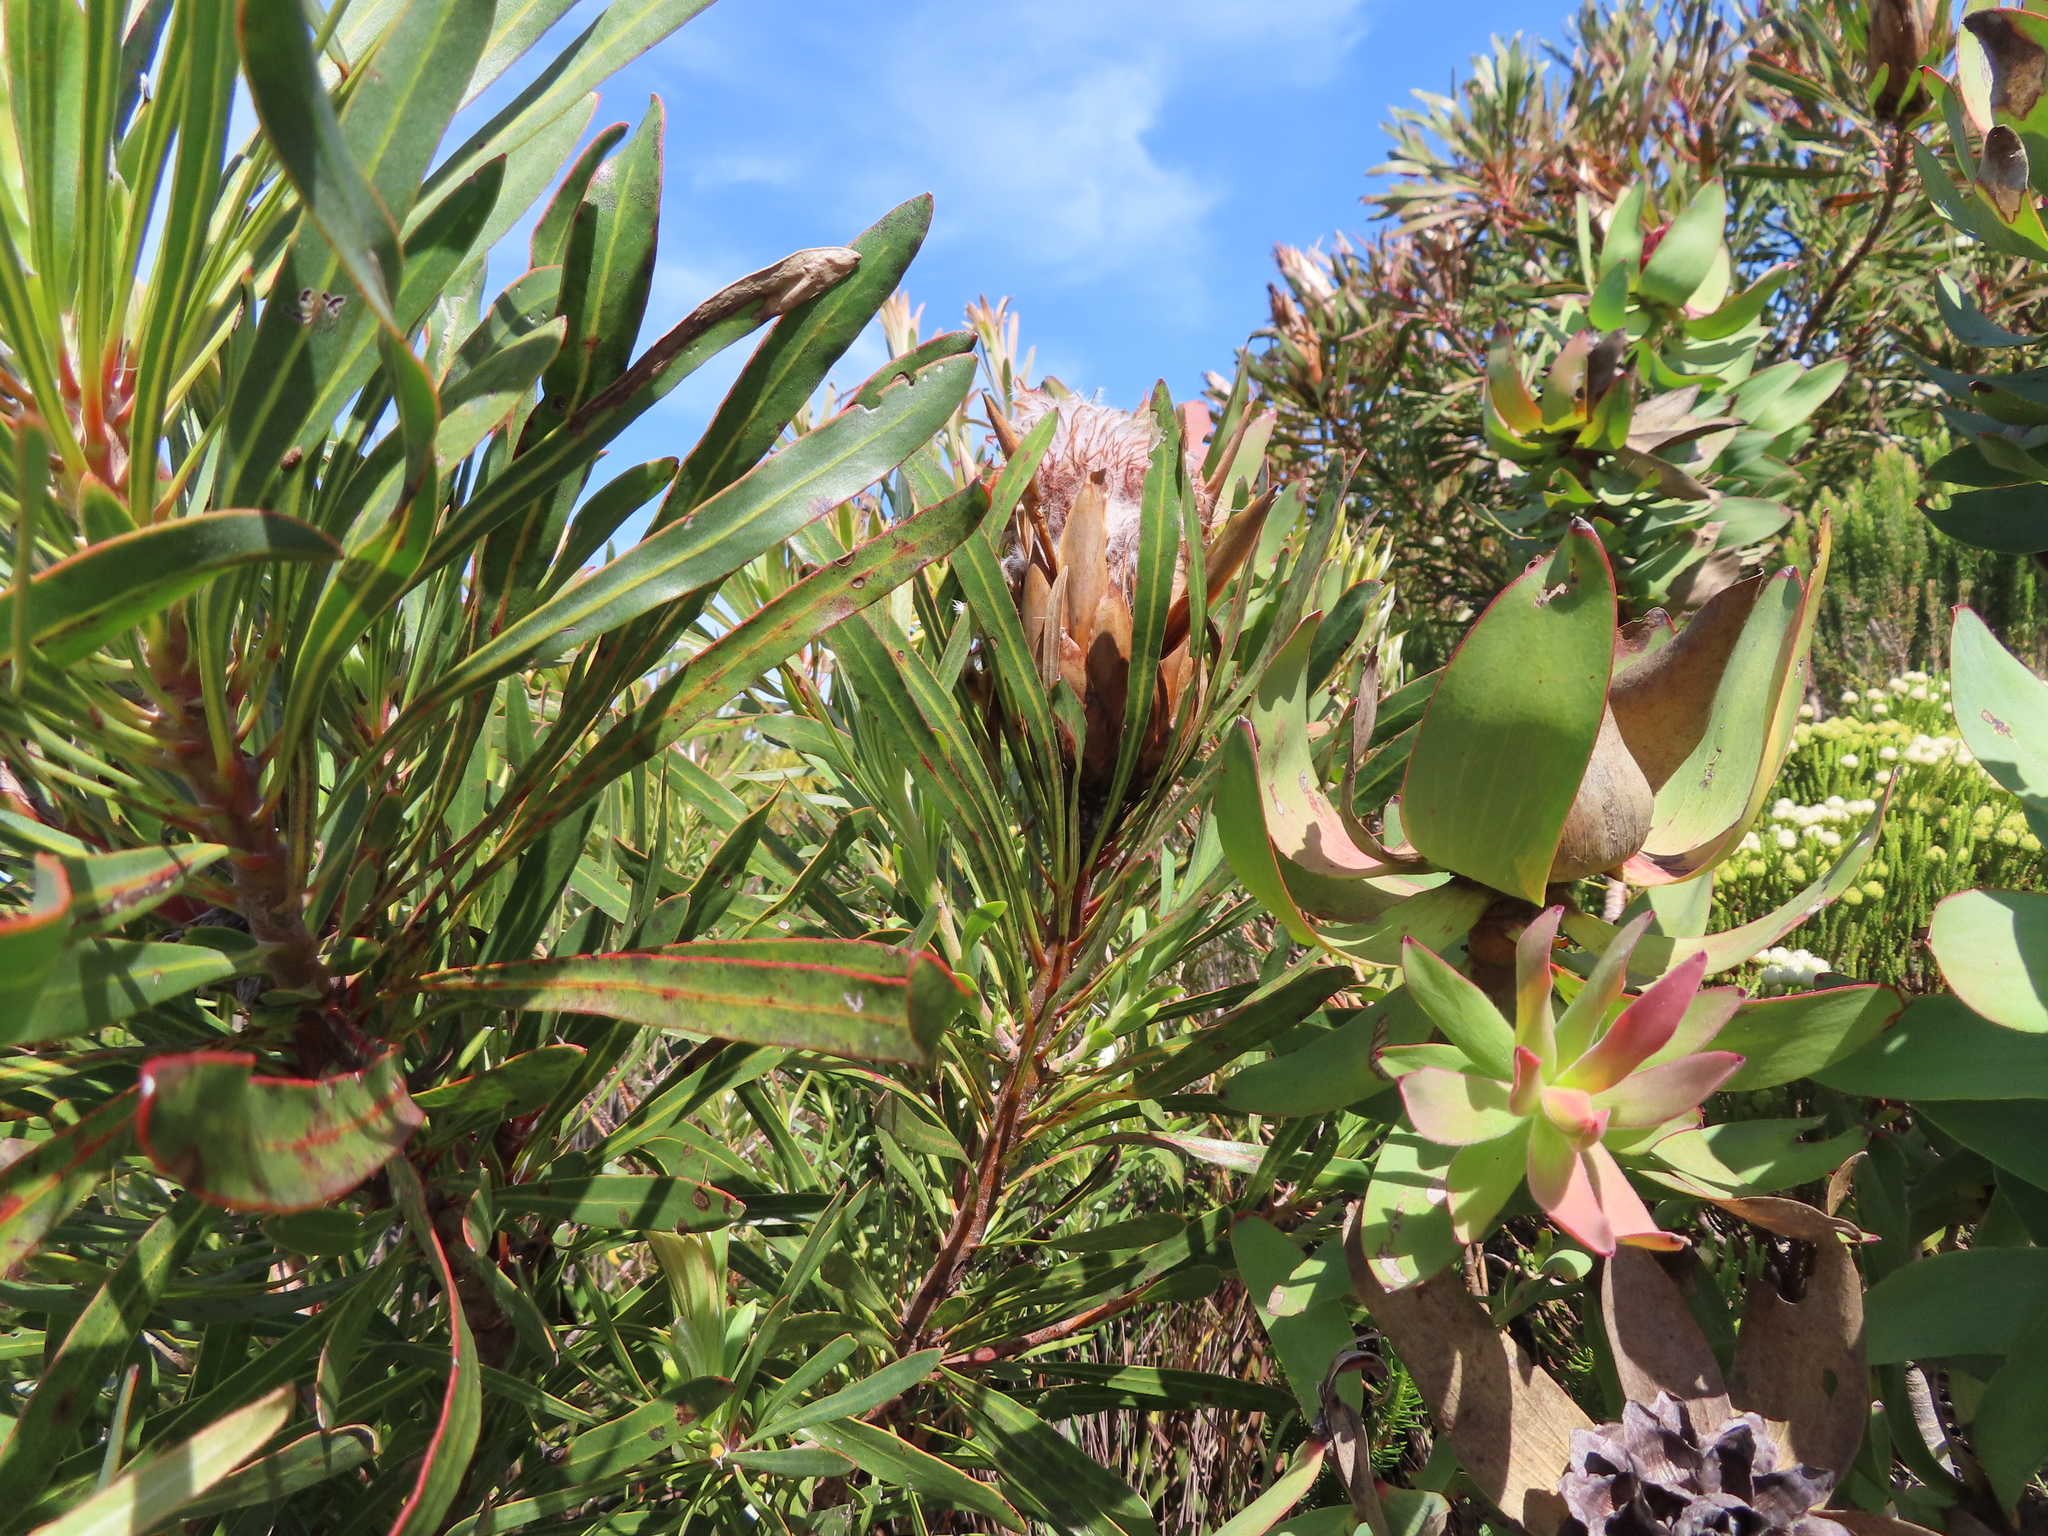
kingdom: Plantae
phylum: Tracheophyta
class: Magnoliopsida
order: Proteales
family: Proteaceae
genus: Protea
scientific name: Protea longifolia
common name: Long-leaf sugarbush
